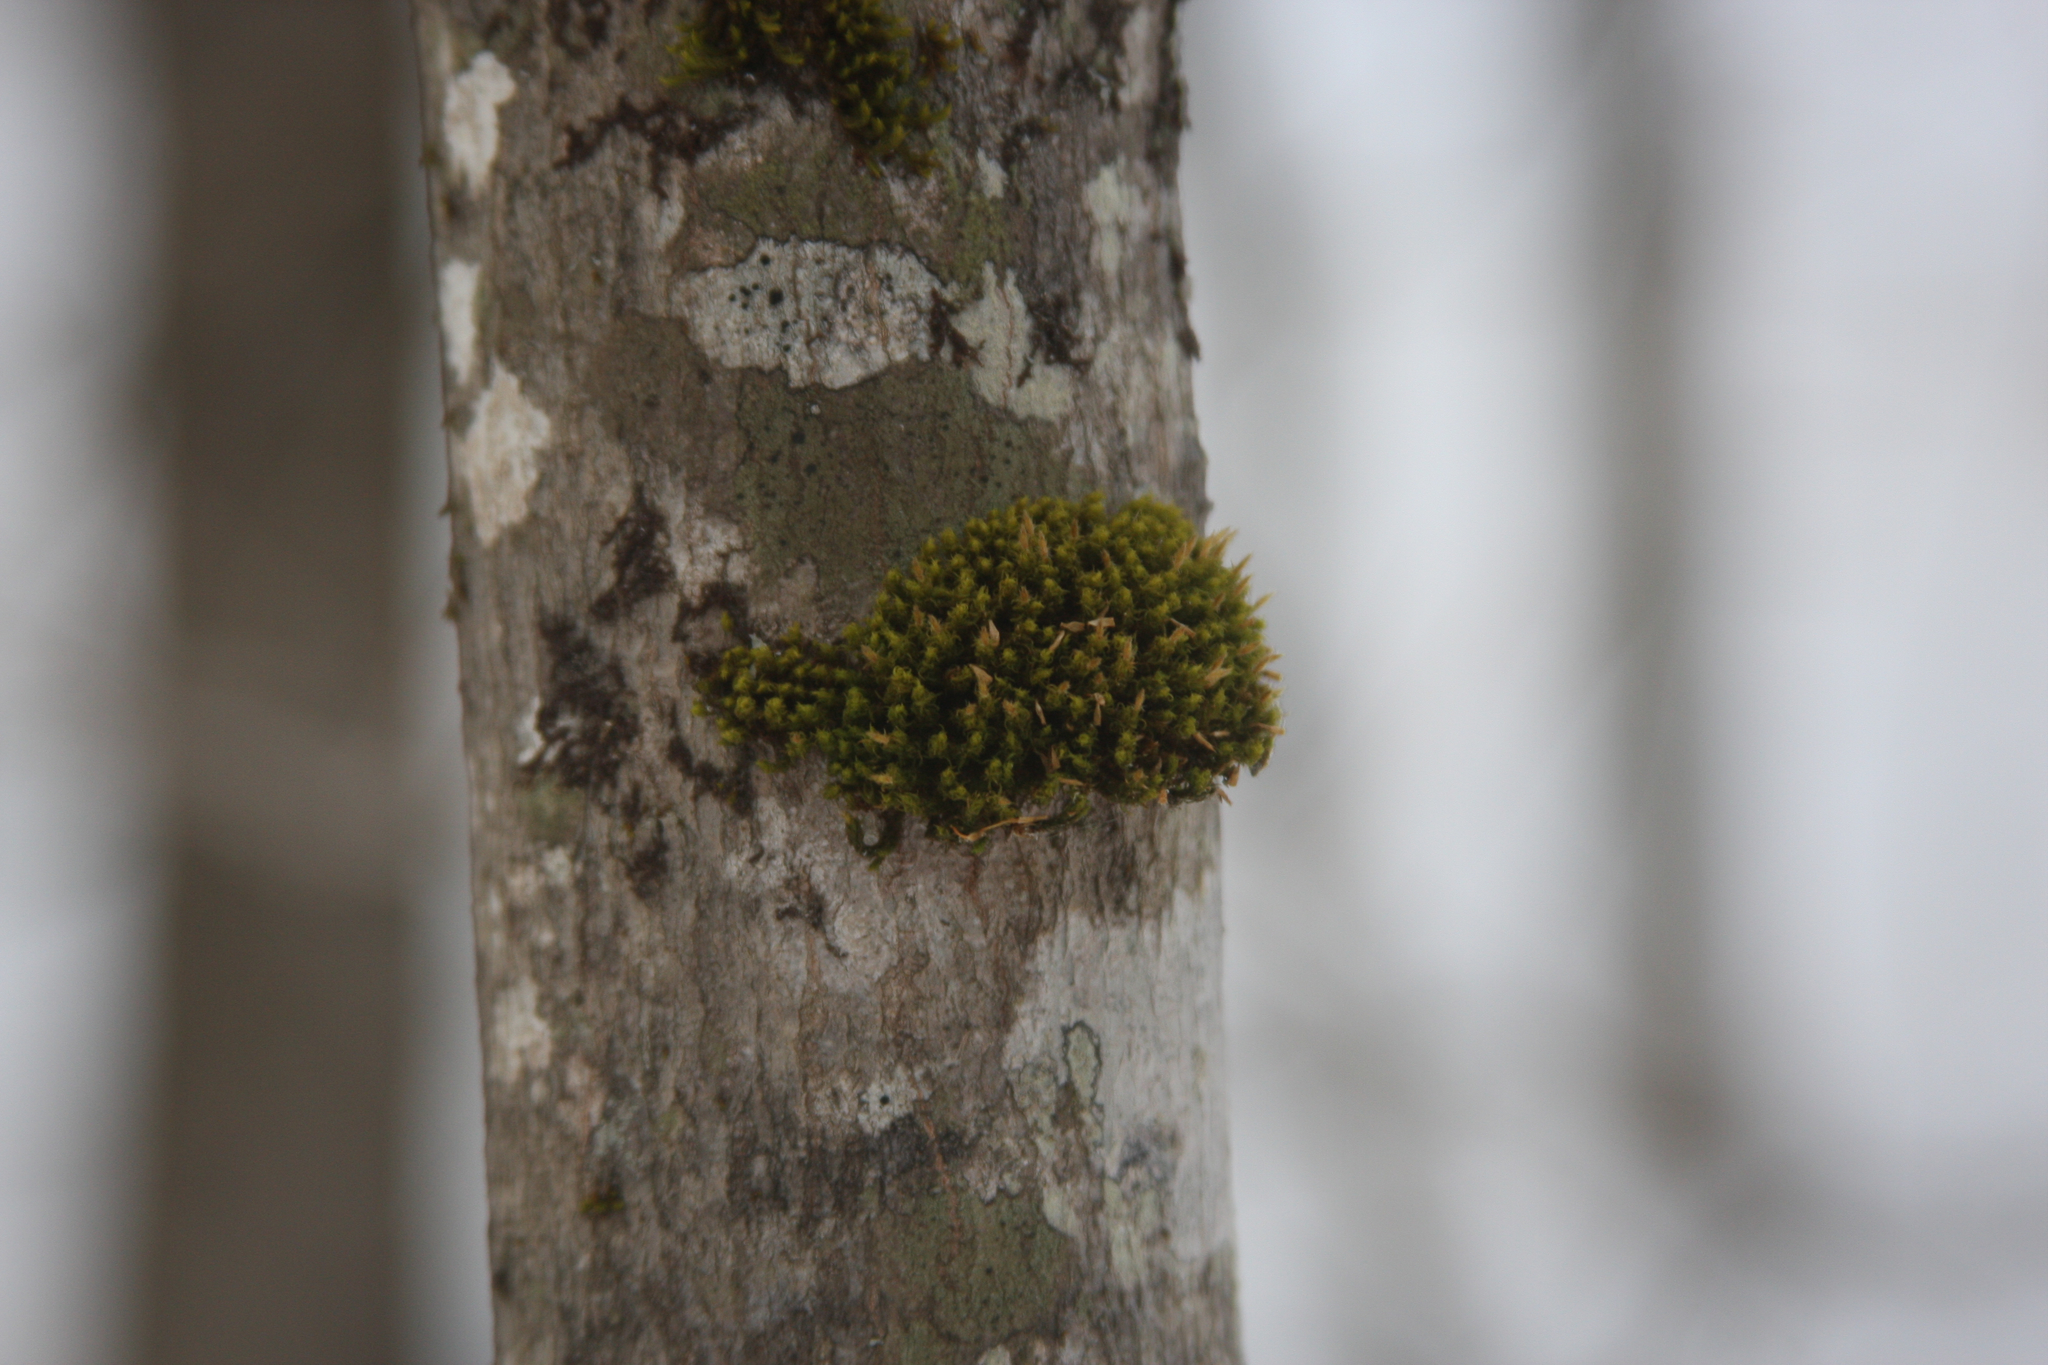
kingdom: Plantae
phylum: Bryophyta
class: Bryopsida
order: Orthotrichales
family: Orthotrichaceae
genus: Ulota
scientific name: Ulota crispa
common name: Crisped pincushion moss
